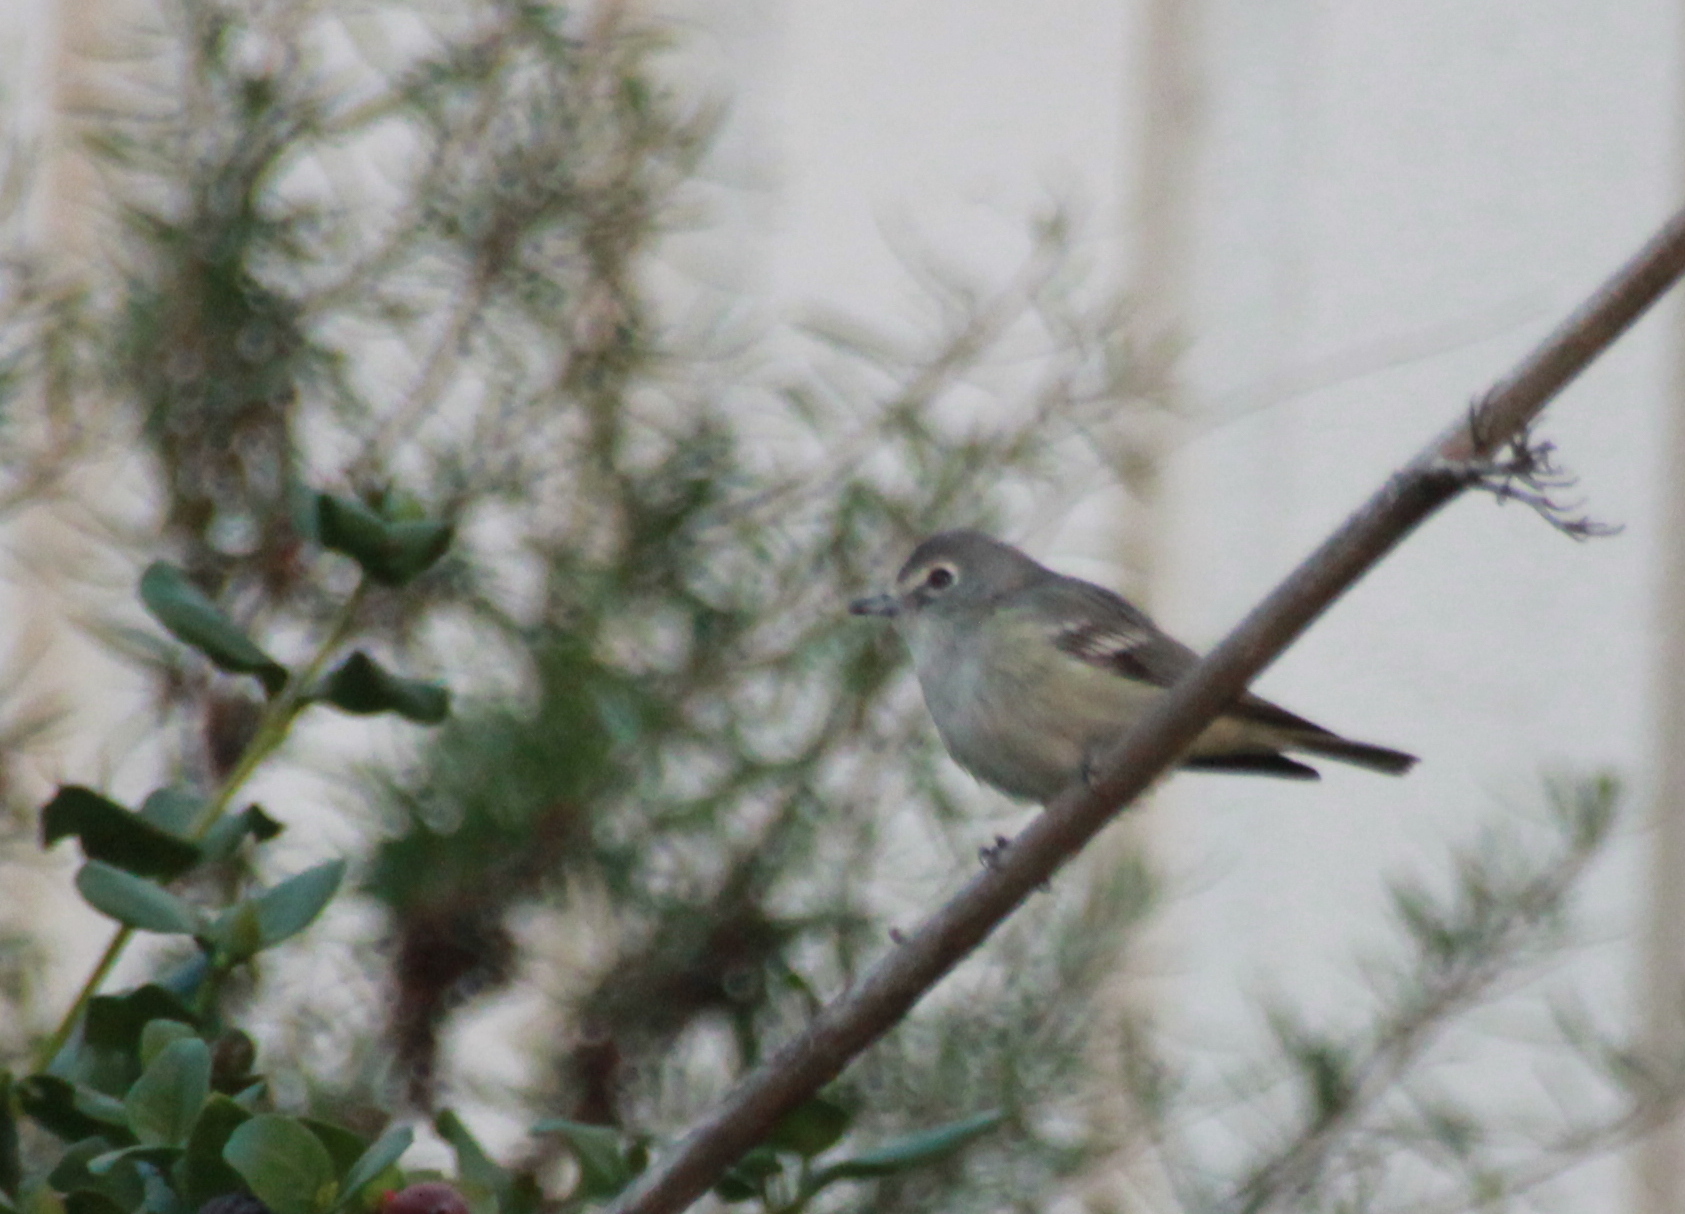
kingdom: Animalia
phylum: Chordata
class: Aves
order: Passeriformes
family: Vireonidae
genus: Vireo
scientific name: Vireo plumbeus
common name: Plumbeous vireo
